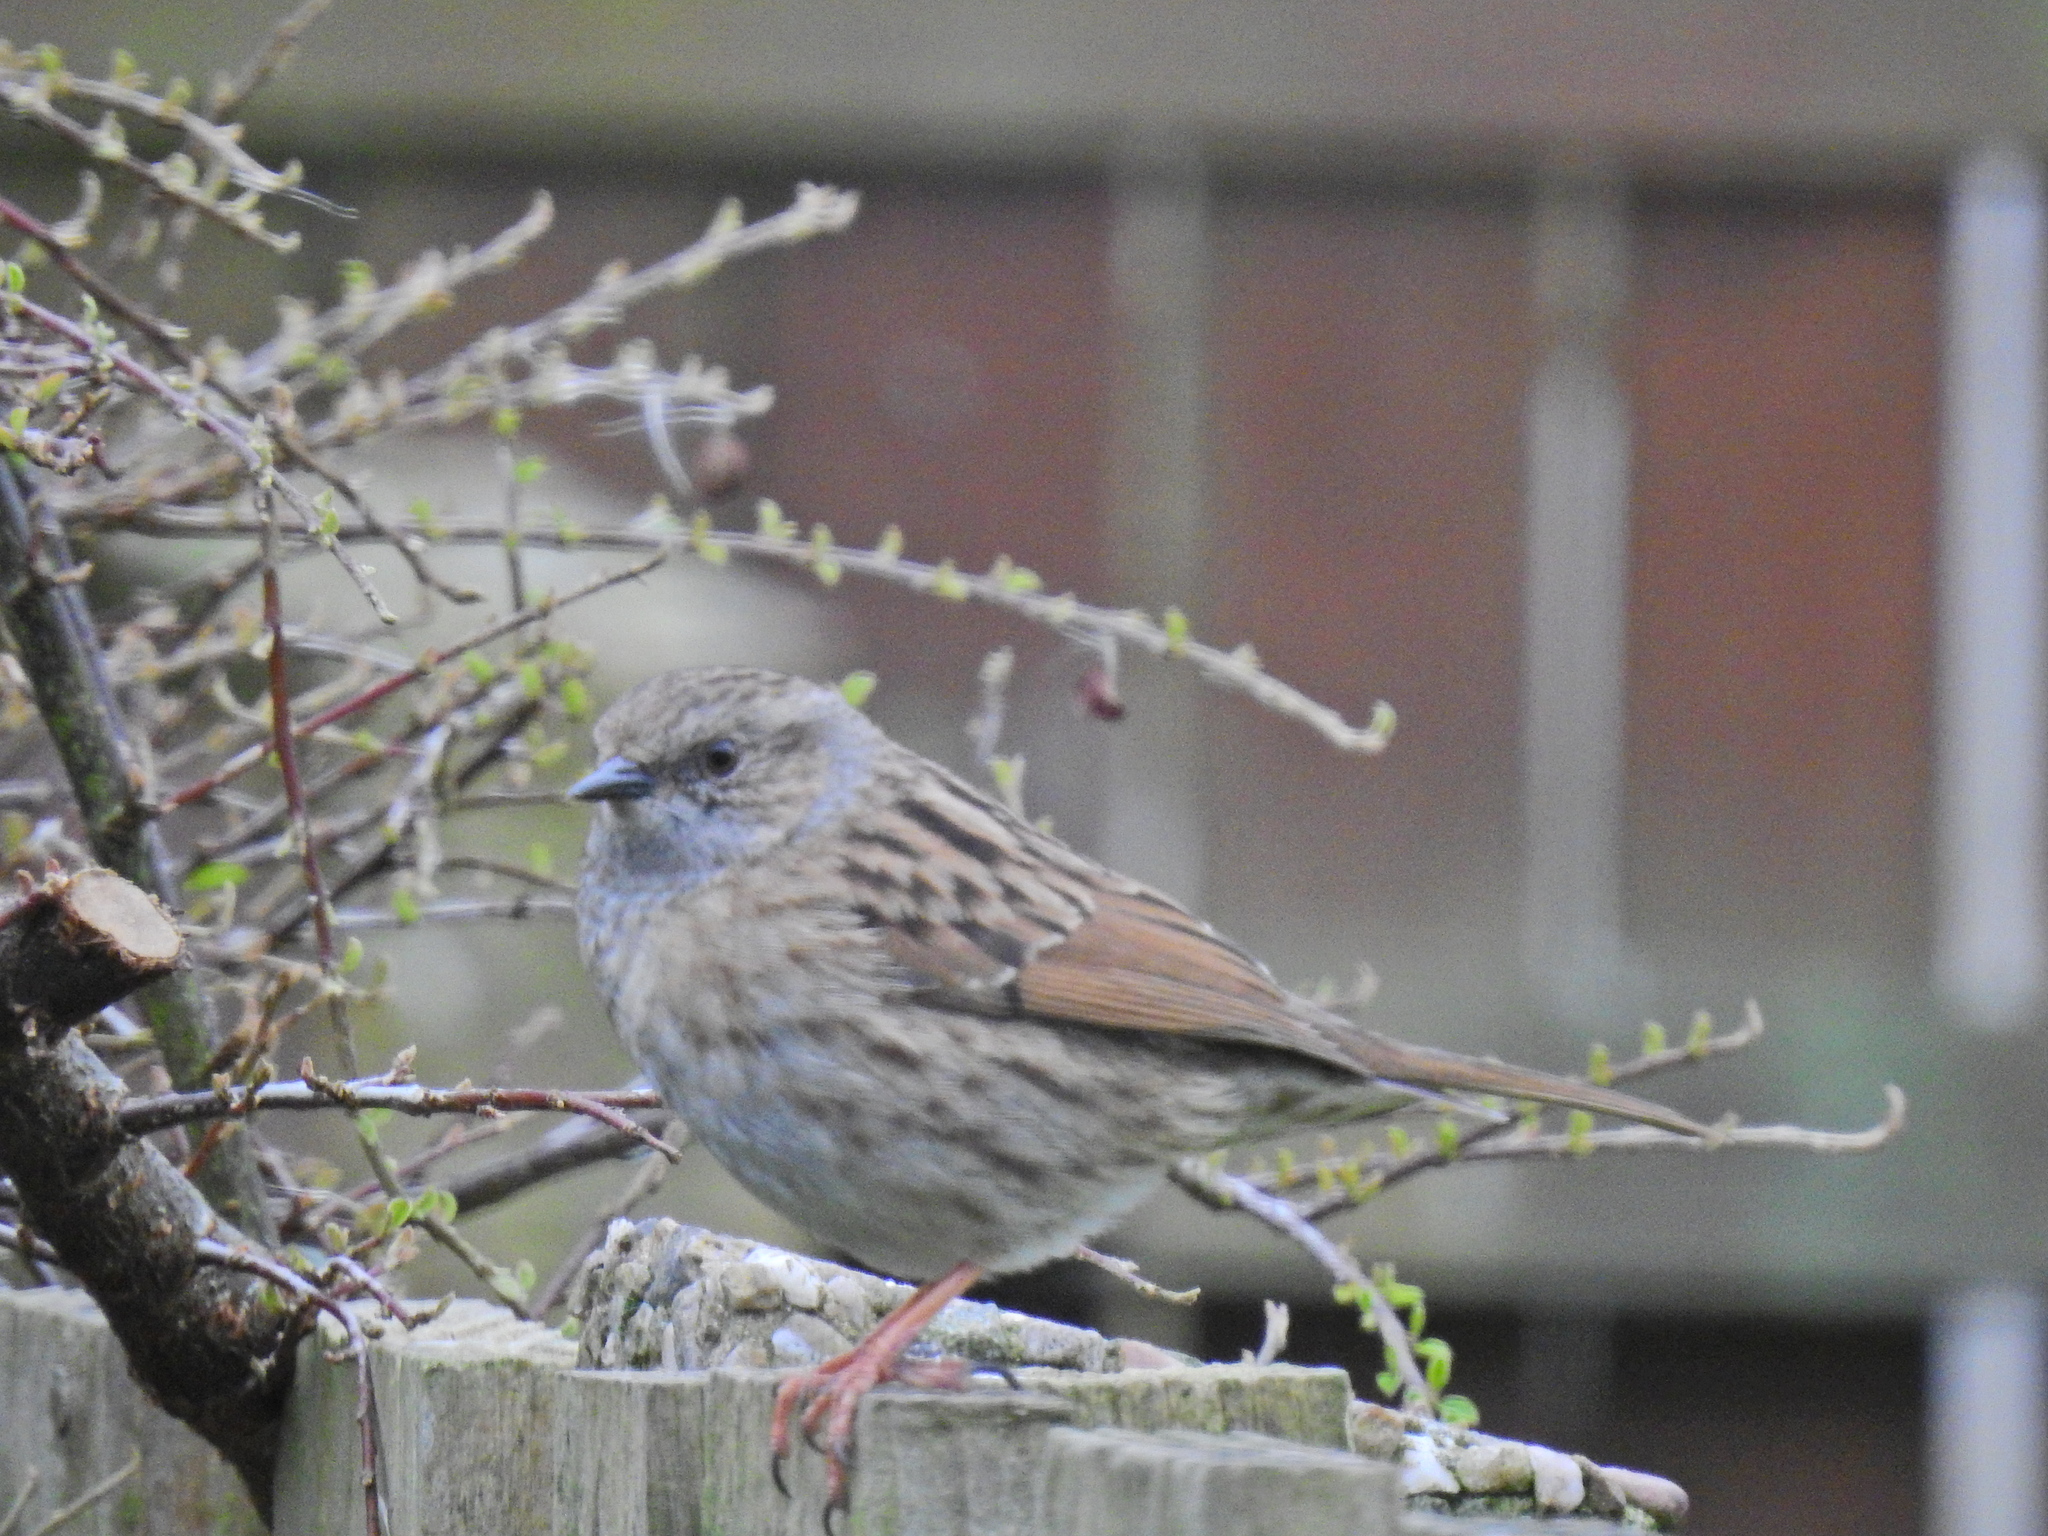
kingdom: Animalia
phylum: Chordata
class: Aves
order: Passeriformes
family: Prunellidae
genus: Prunella
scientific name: Prunella modularis
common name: Dunnock
